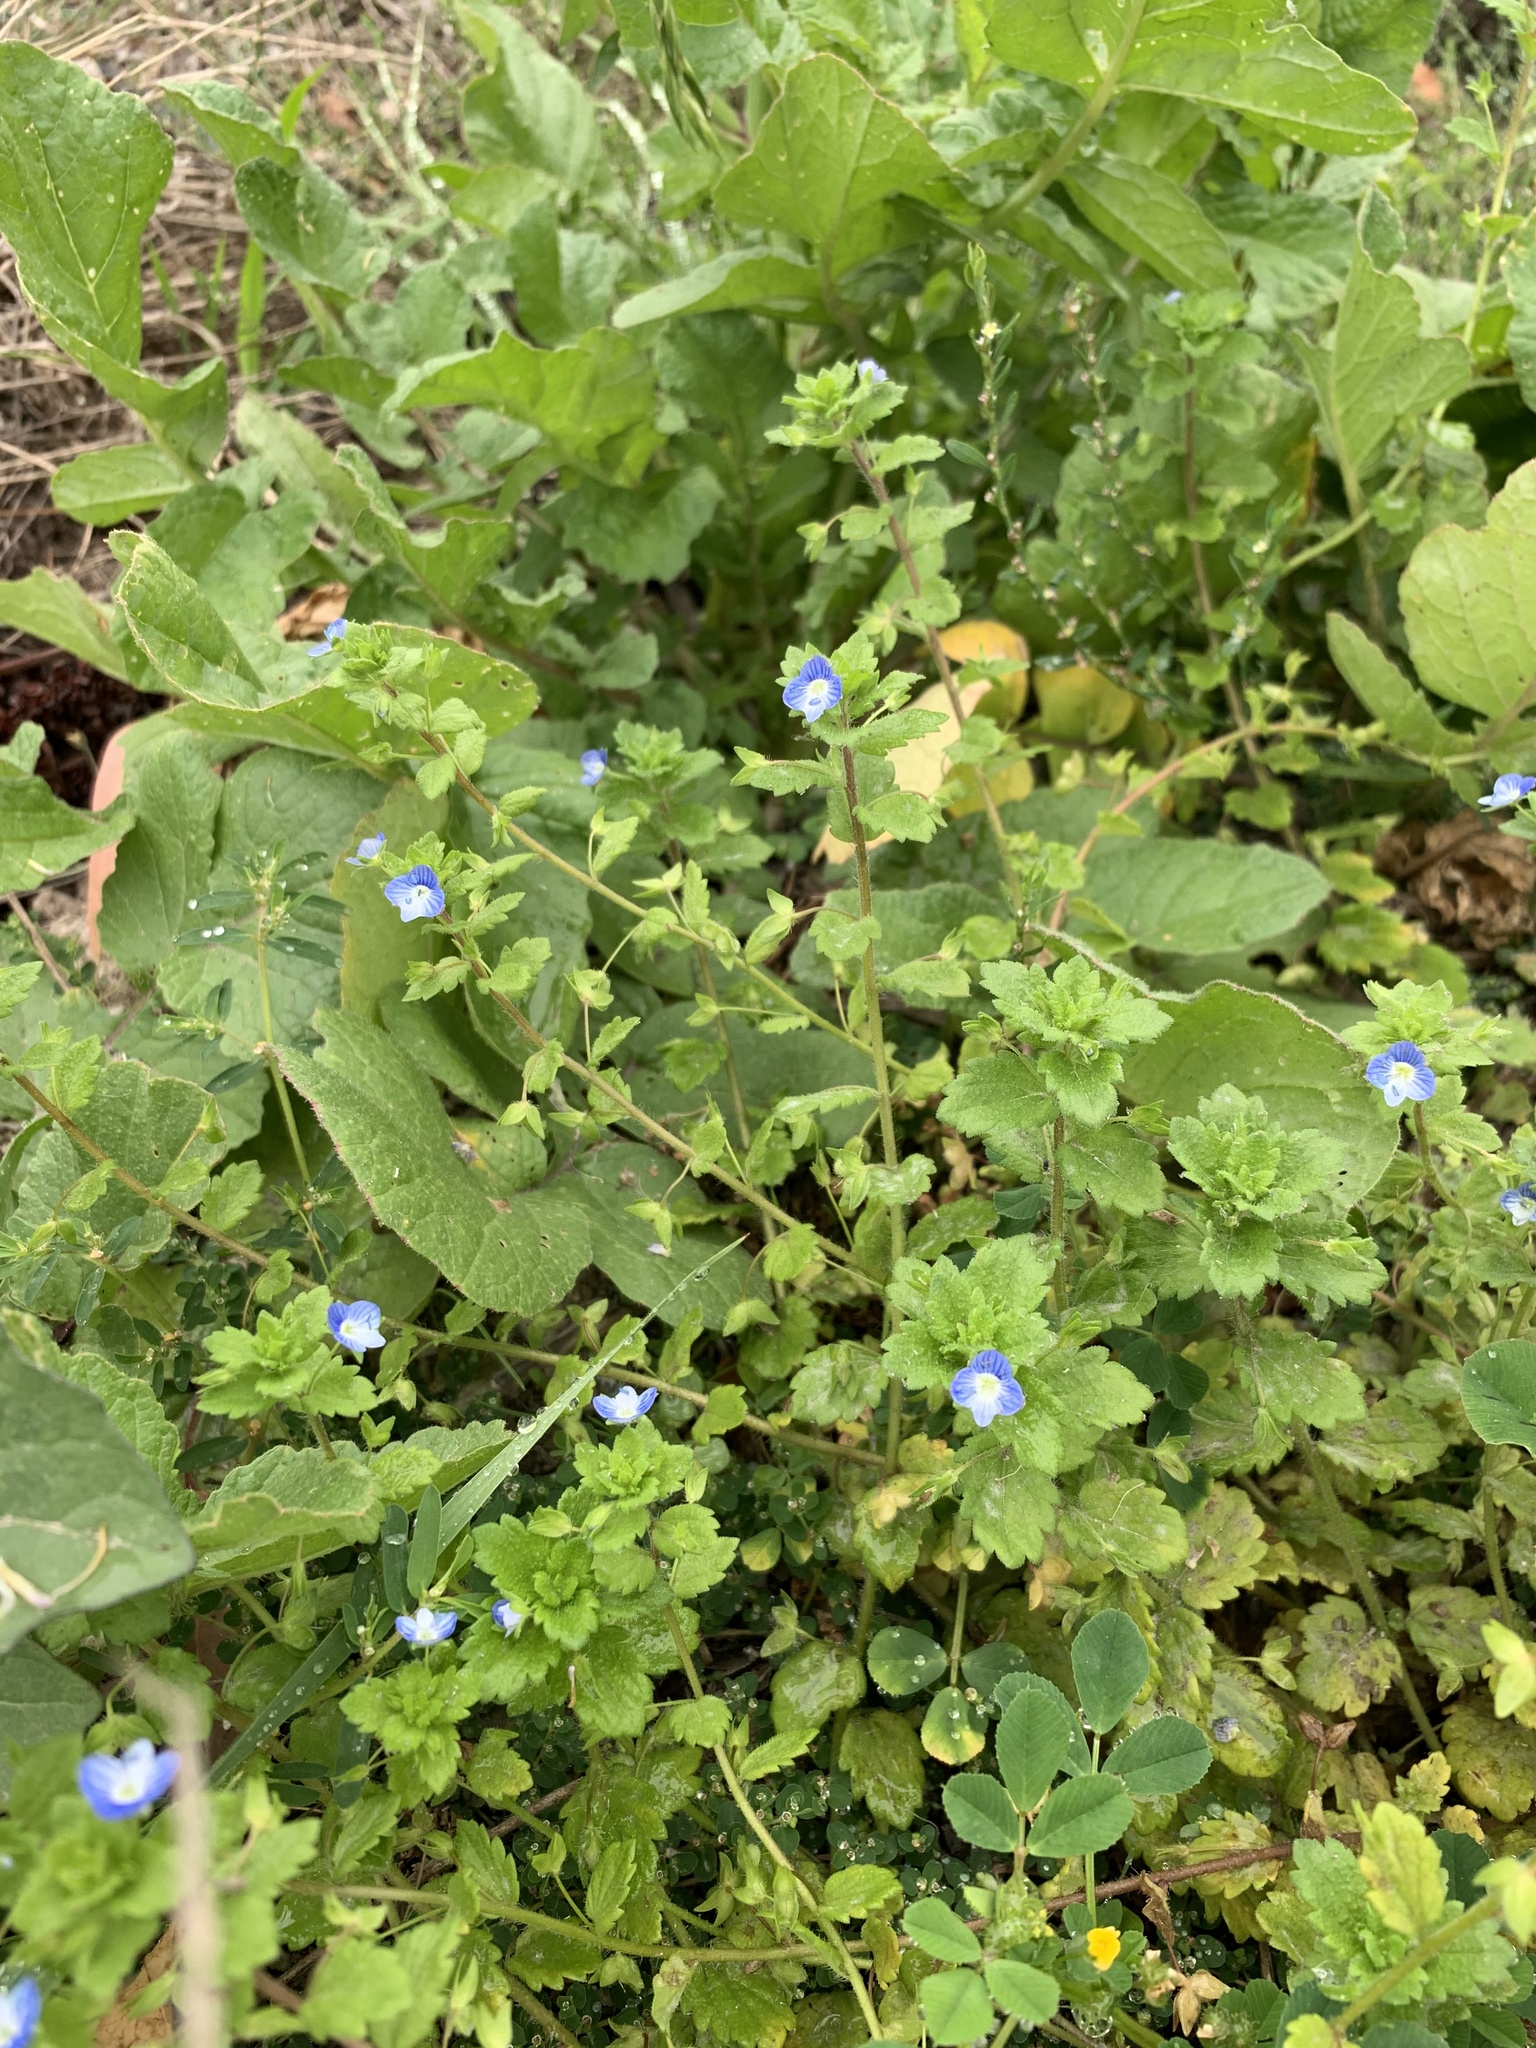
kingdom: Plantae
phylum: Tracheophyta
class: Magnoliopsida
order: Lamiales
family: Plantaginaceae
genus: Veronica
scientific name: Veronica persica
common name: Common field-speedwell
